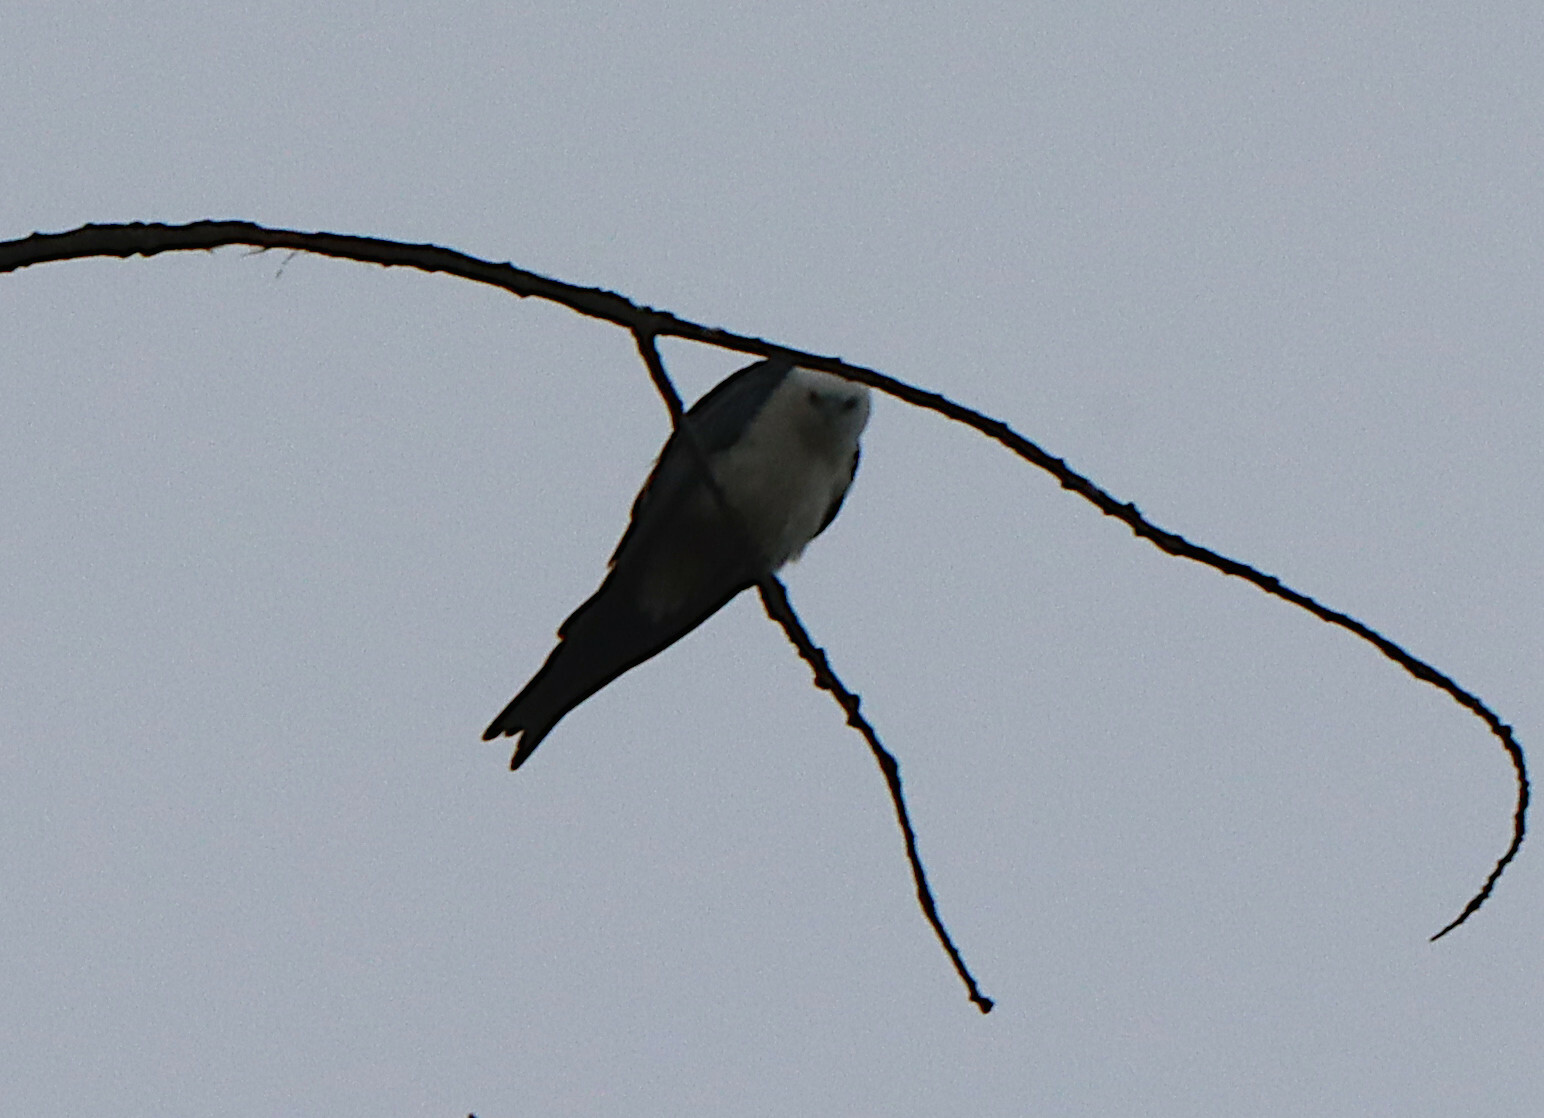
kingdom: Animalia
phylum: Chordata
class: Aves
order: Accipitriformes
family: Accipitridae
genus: Elanoides
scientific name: Elanoides forficatus
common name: Swallow-tailed kite
